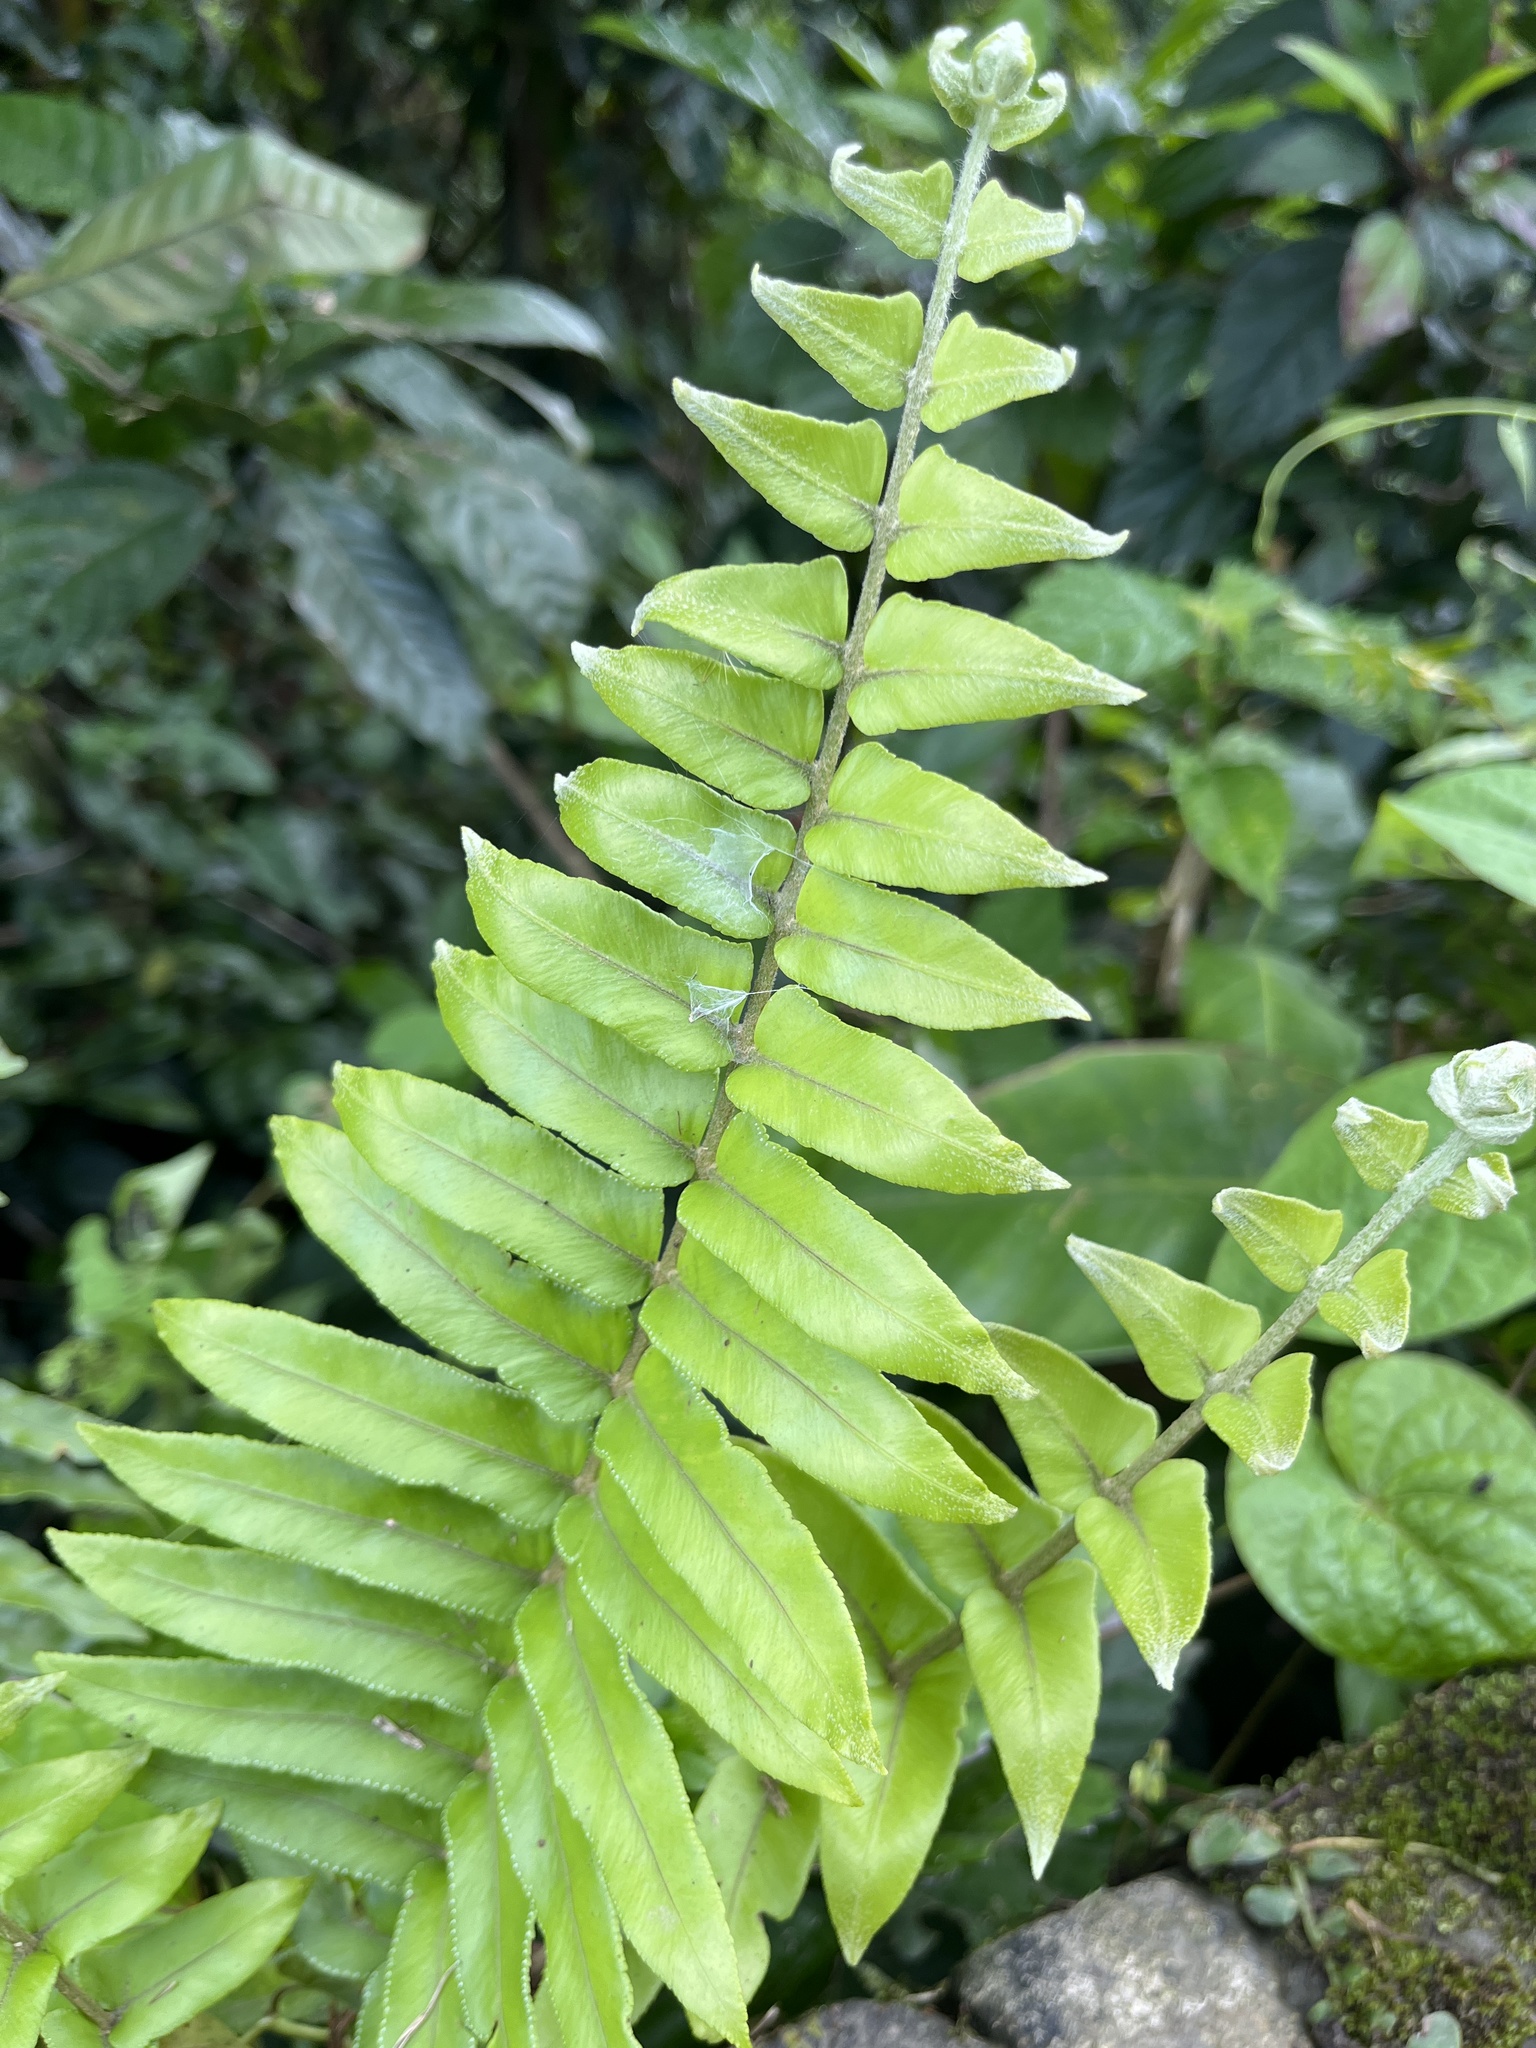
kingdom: Plantae
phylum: Tracheophyta
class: Polypodiopsida
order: Polypodiales
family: Nephrolepidaceae
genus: Nephrolepis
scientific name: Nephrolepis brownii
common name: Asian swordfern
